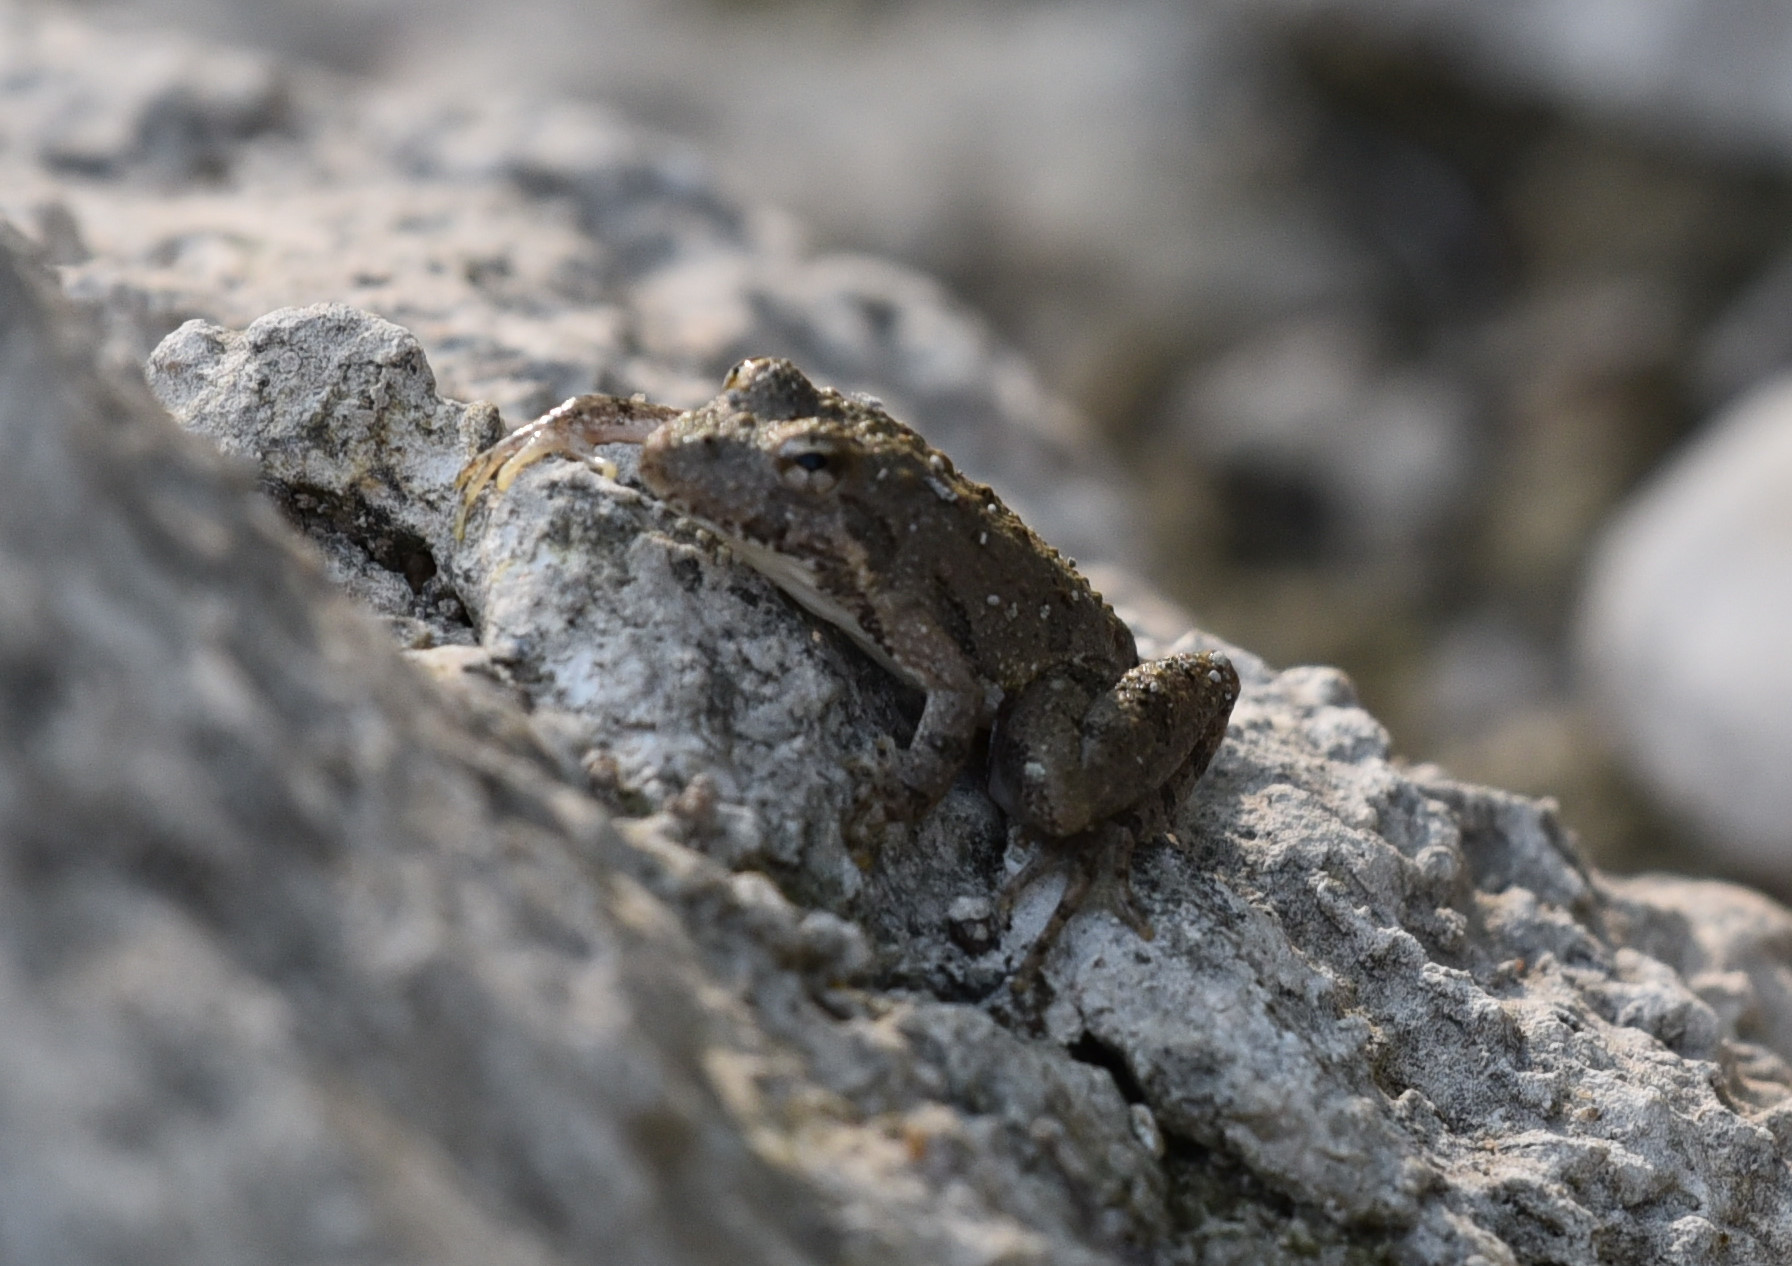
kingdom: Animalia
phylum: Chordata
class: Amphibia
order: Anura
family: Hylidae
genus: Acris
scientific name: Acris blanchardi
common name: Blanchard's cricket frog
